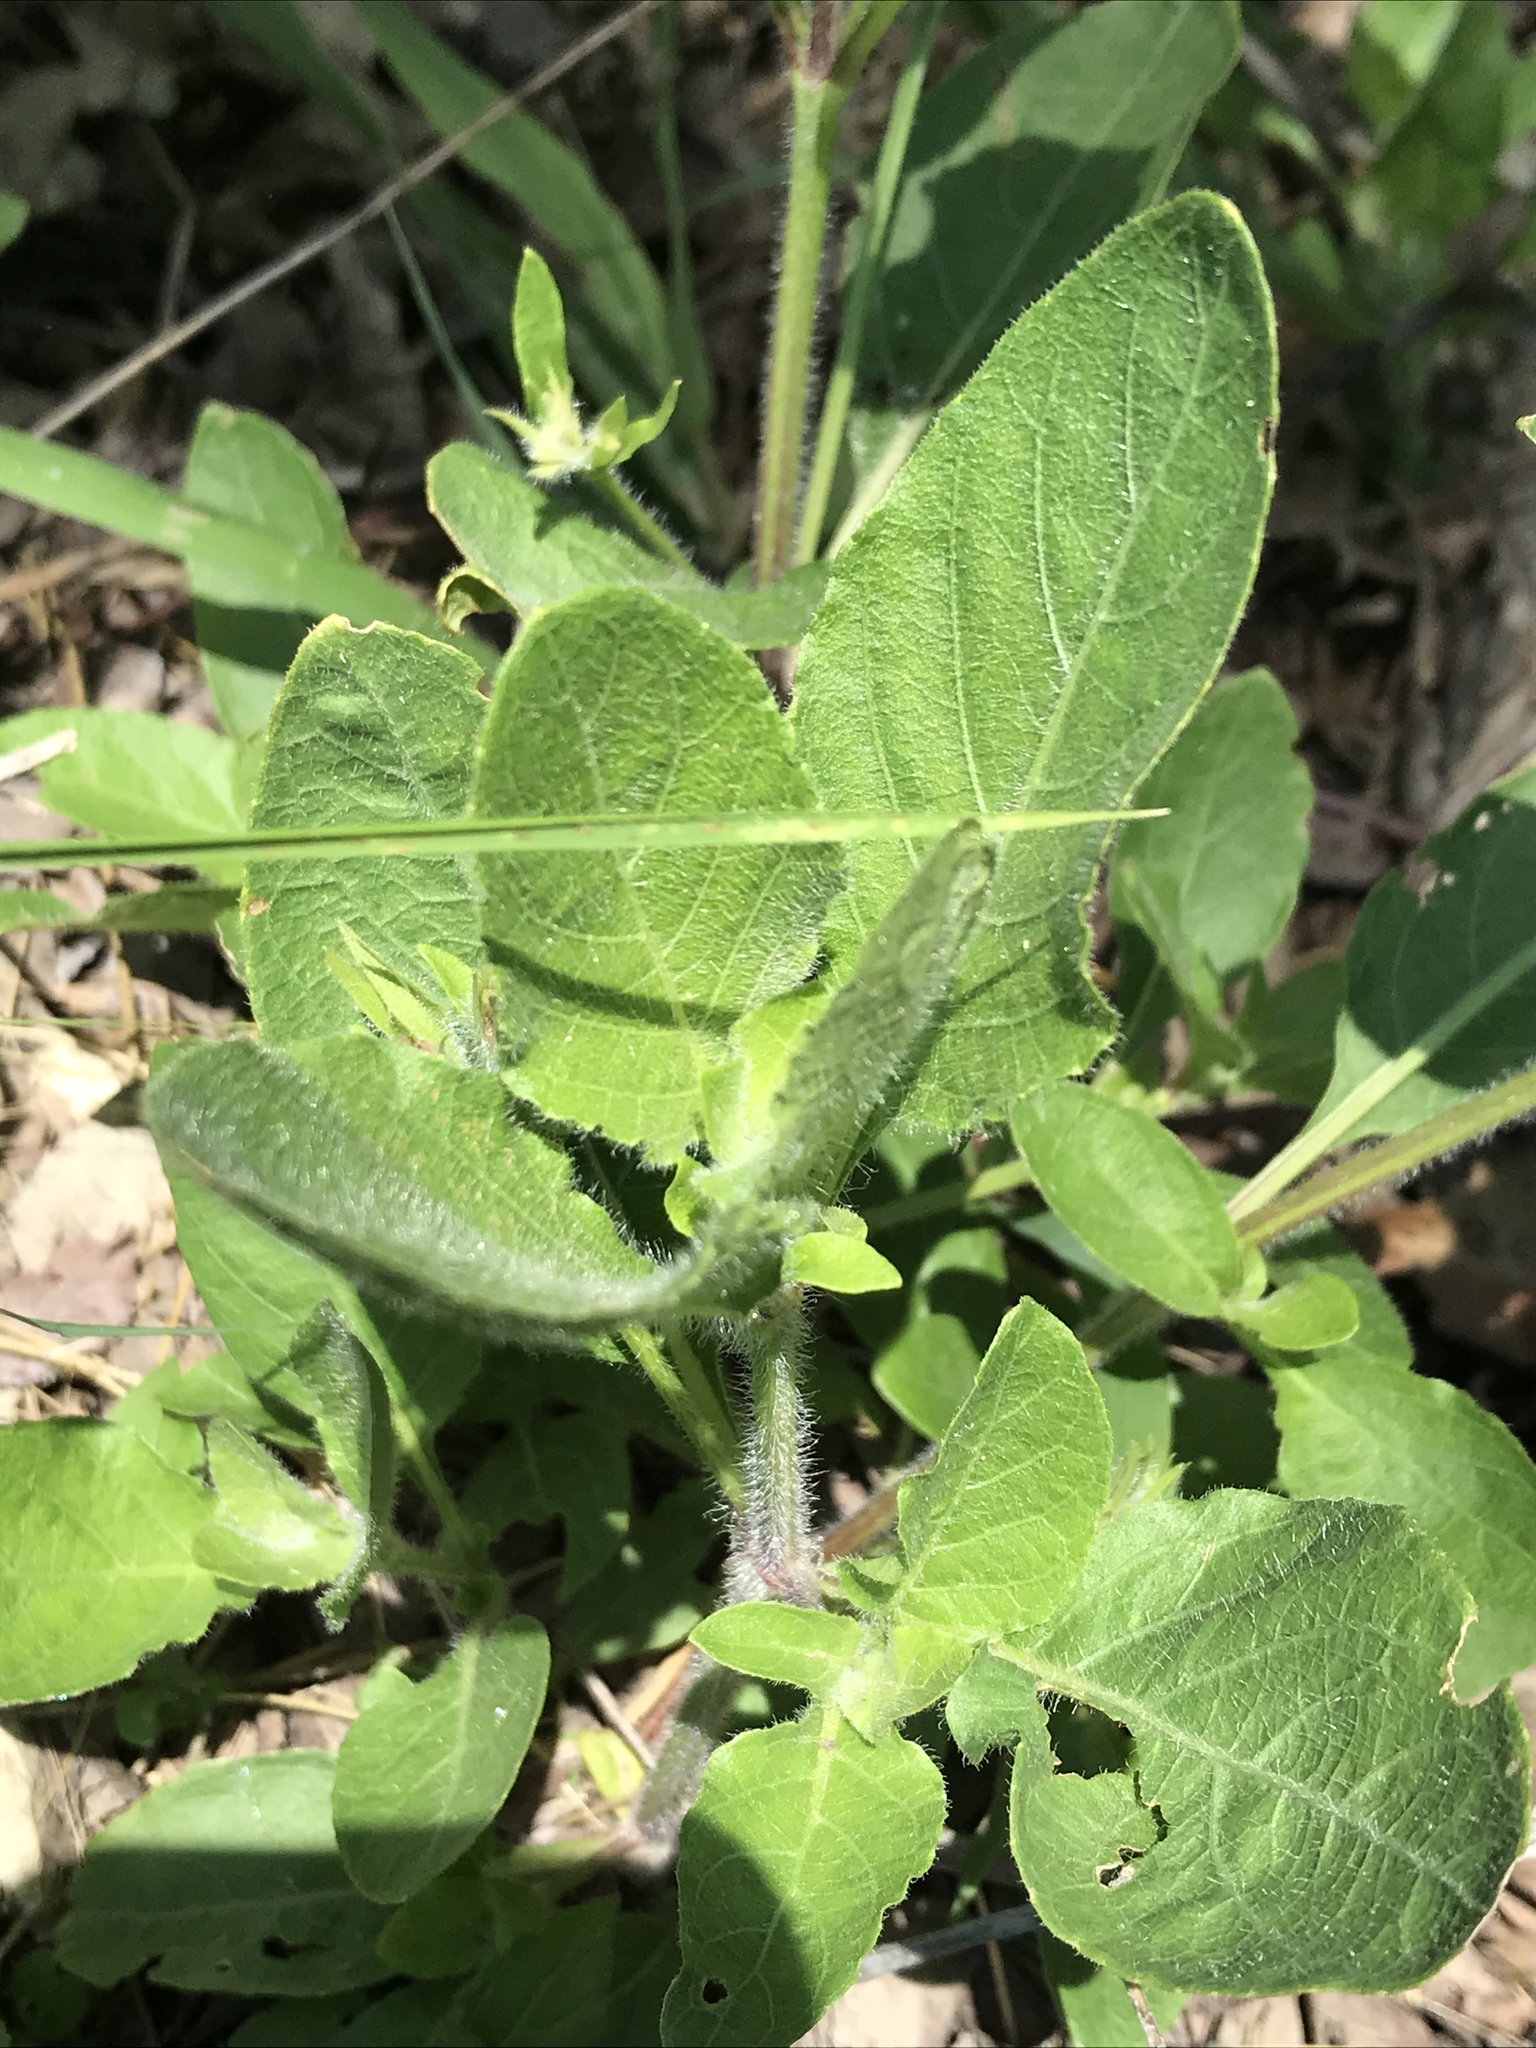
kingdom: Plantae
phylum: Tracheophyta
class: Magnoliopsida
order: Lamiales
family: Acanthaceae
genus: Ruellia
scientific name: Ruellia humilis
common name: Fringe-leaf ruellia
